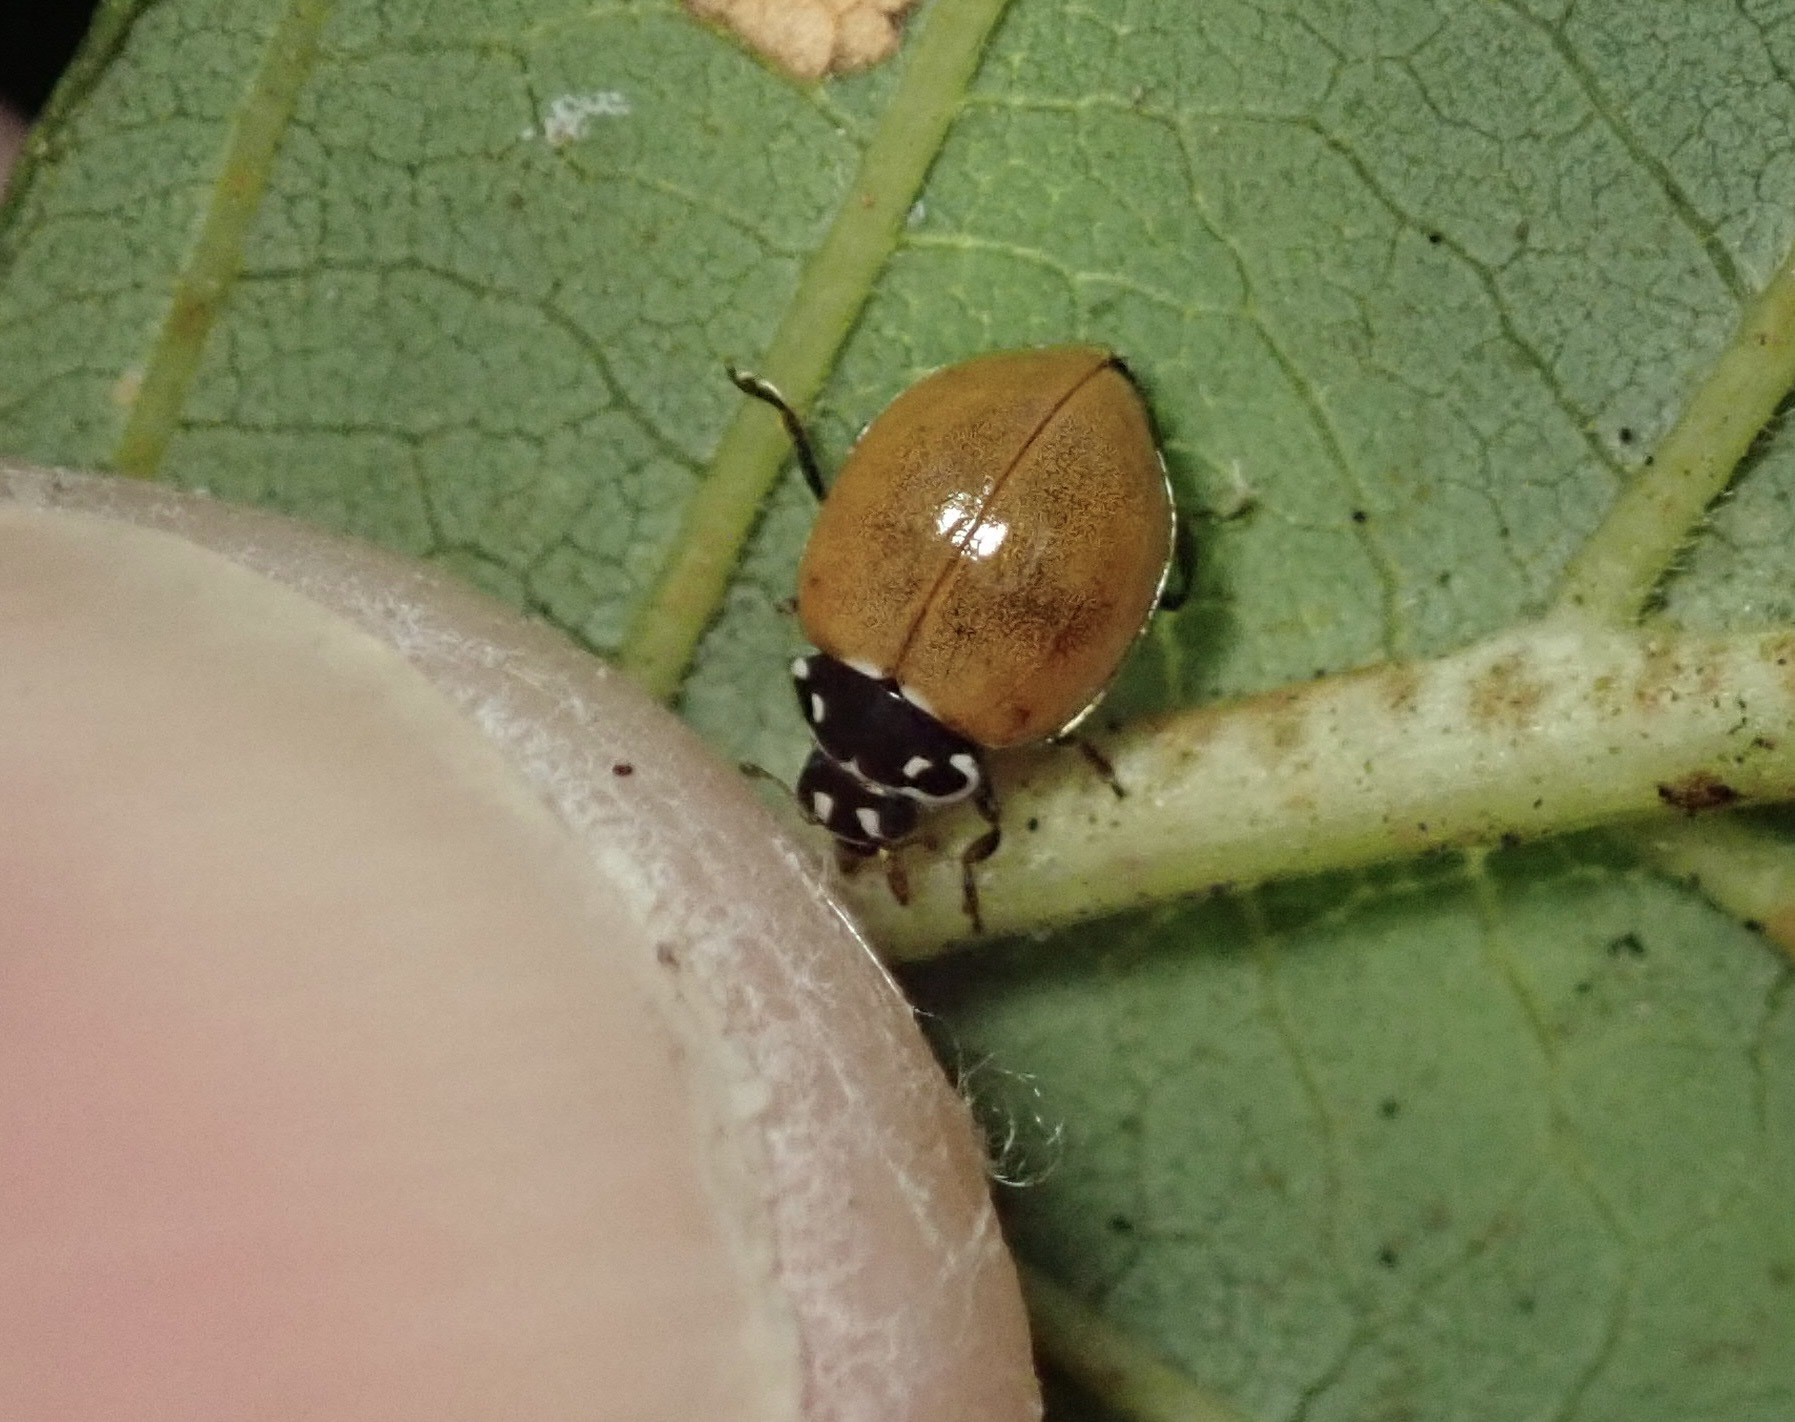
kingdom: Animalia
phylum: Arthropoda
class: Insecta
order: Coleoptera
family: Coccinellidae
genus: Cycloneda
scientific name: Cycloneda polita
